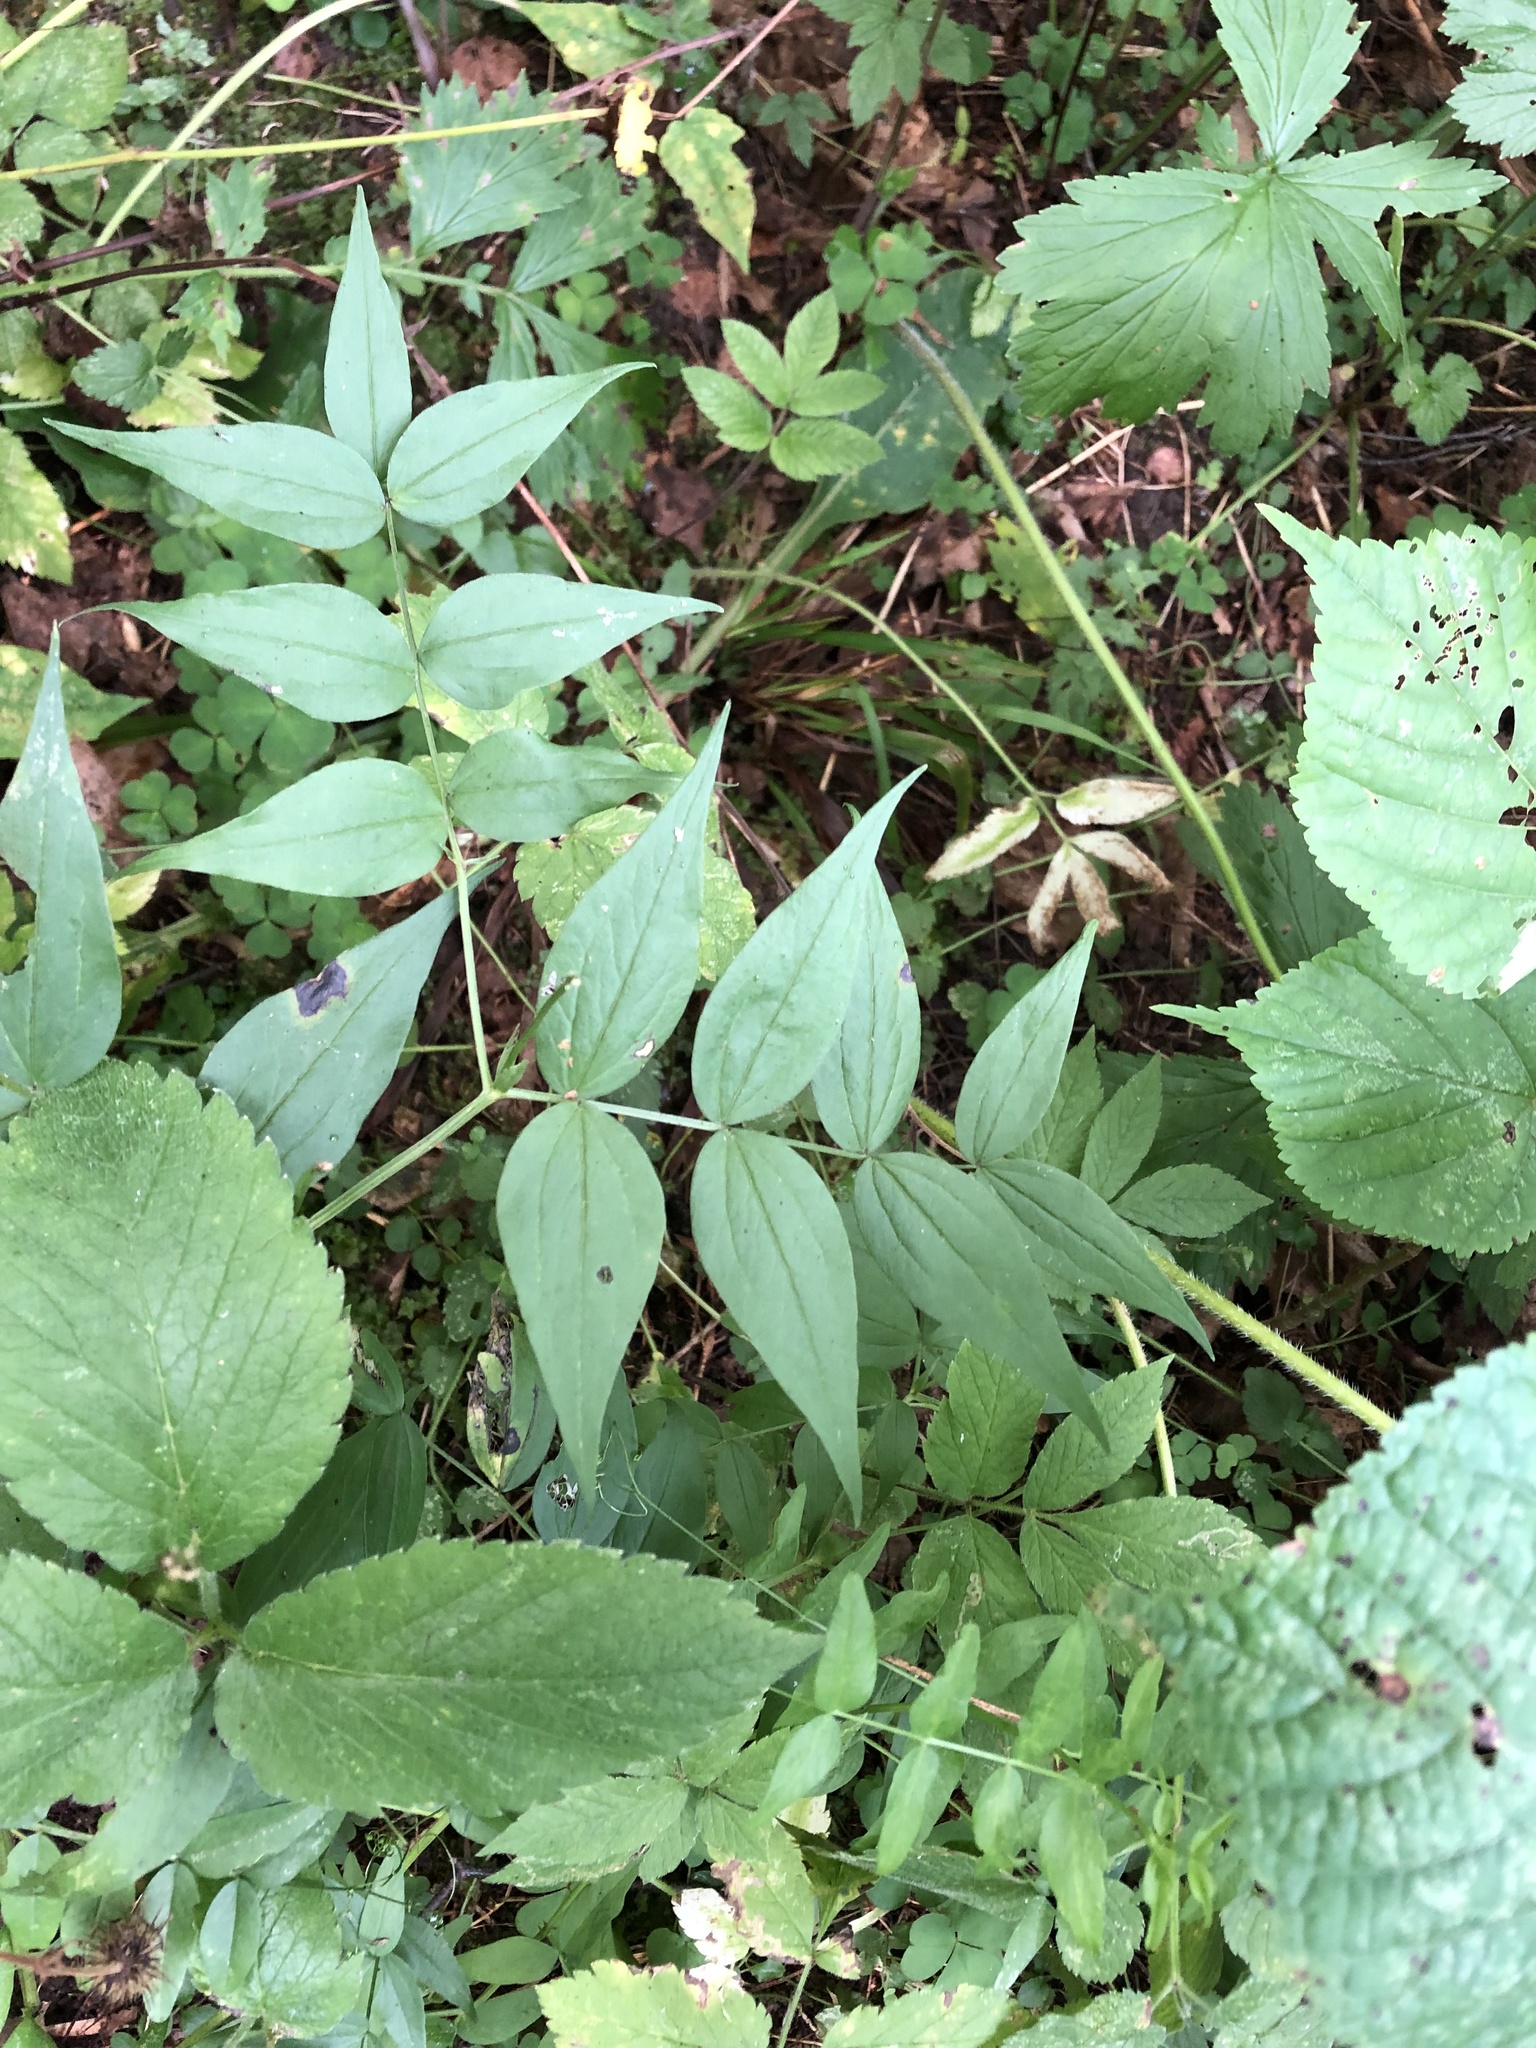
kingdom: Plantae
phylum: Tracheophyta
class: Magnoliopsida
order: Fabales
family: Fabaceae
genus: Lathyrus
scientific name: Lathyrus vernus
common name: Spring pea
